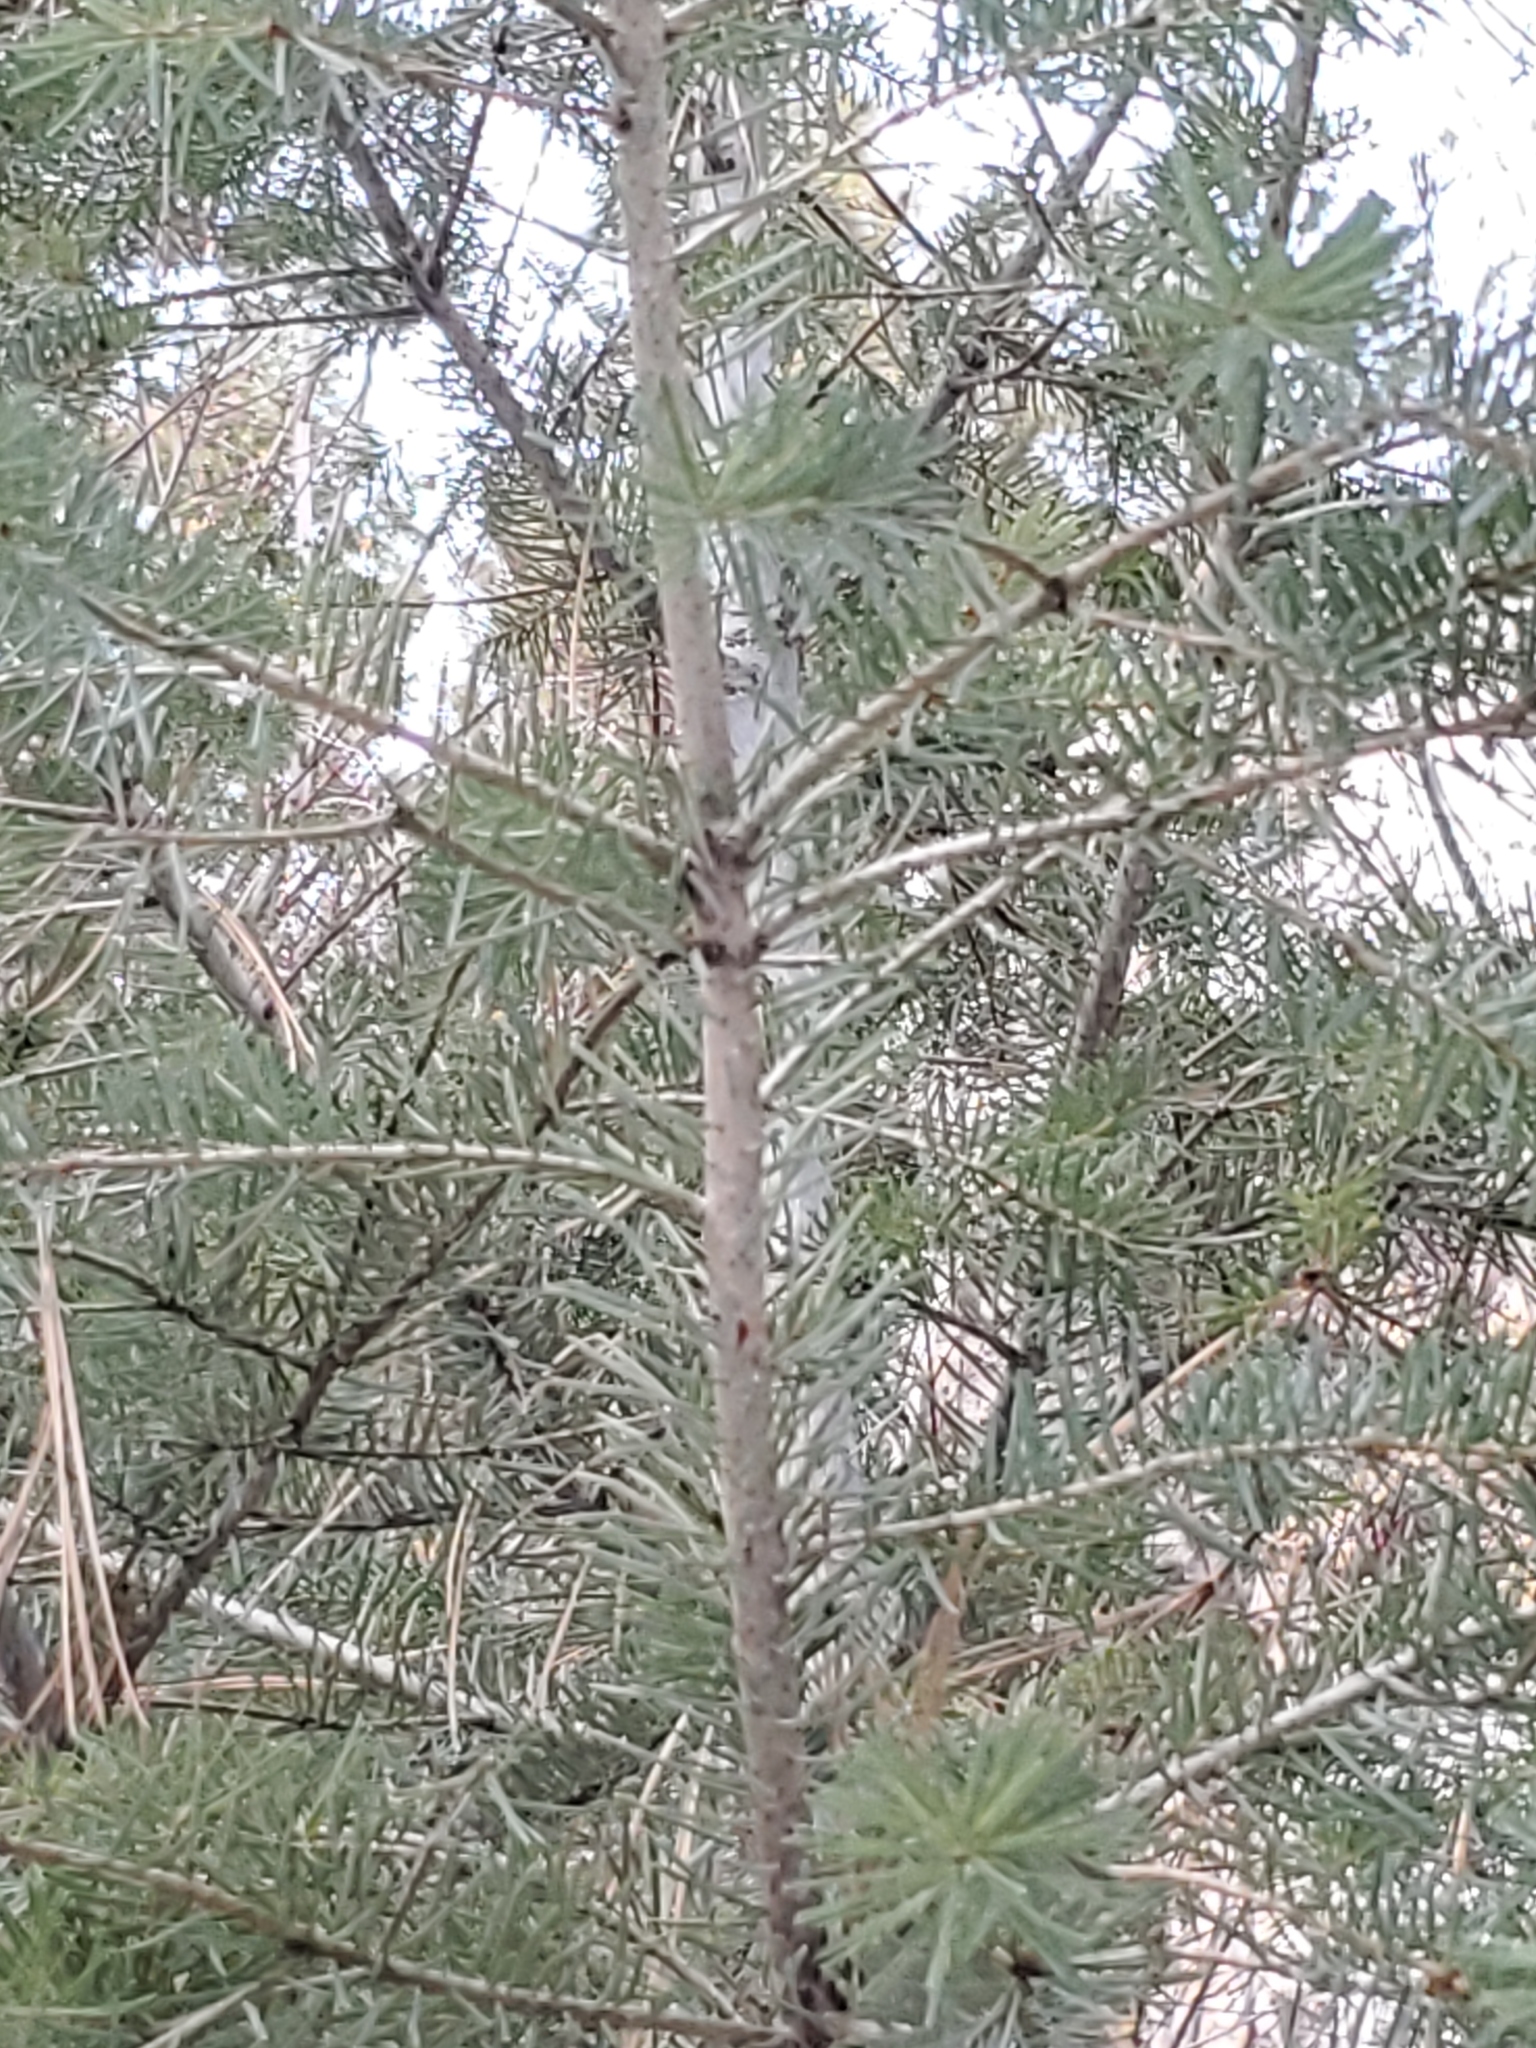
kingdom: Plantae
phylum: Tracheophyta
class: Pinopsida
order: Pinales
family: Pinaceae
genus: Pseudotsuga
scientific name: Pseudotsuga menziesii
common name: Douglas fir
